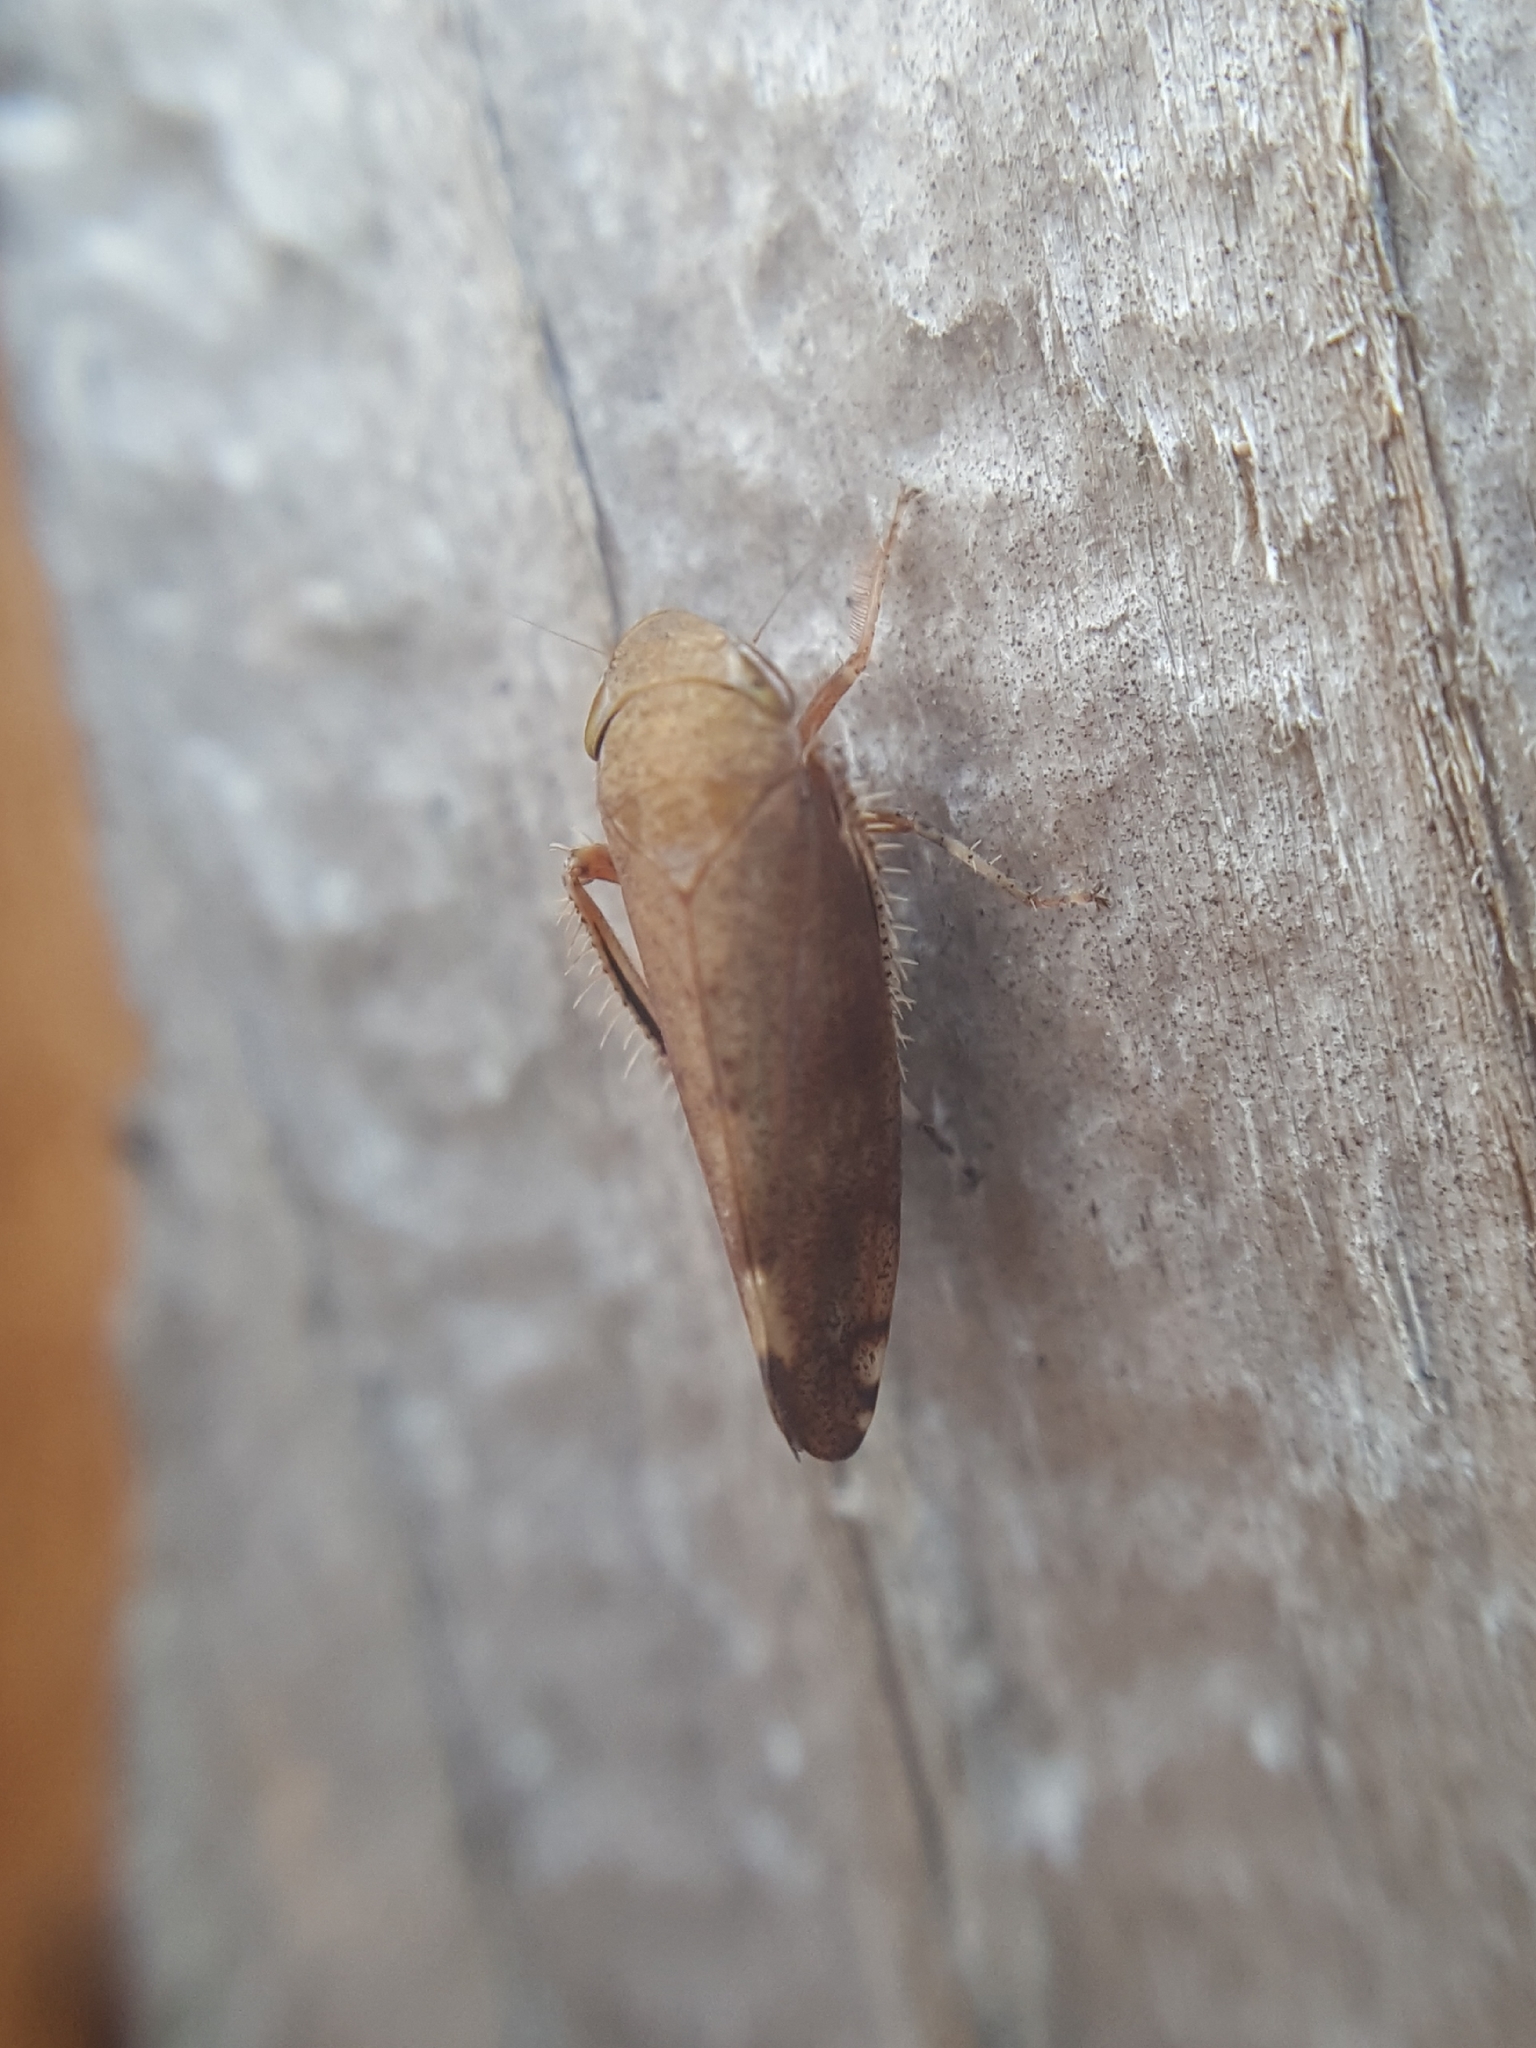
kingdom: Animalia
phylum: Arthropoda
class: Insecta
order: Hemiptera
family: Cicadellidae
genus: Fieberiella
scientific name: Fieberiella florii
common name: Flor’s leafhopper
